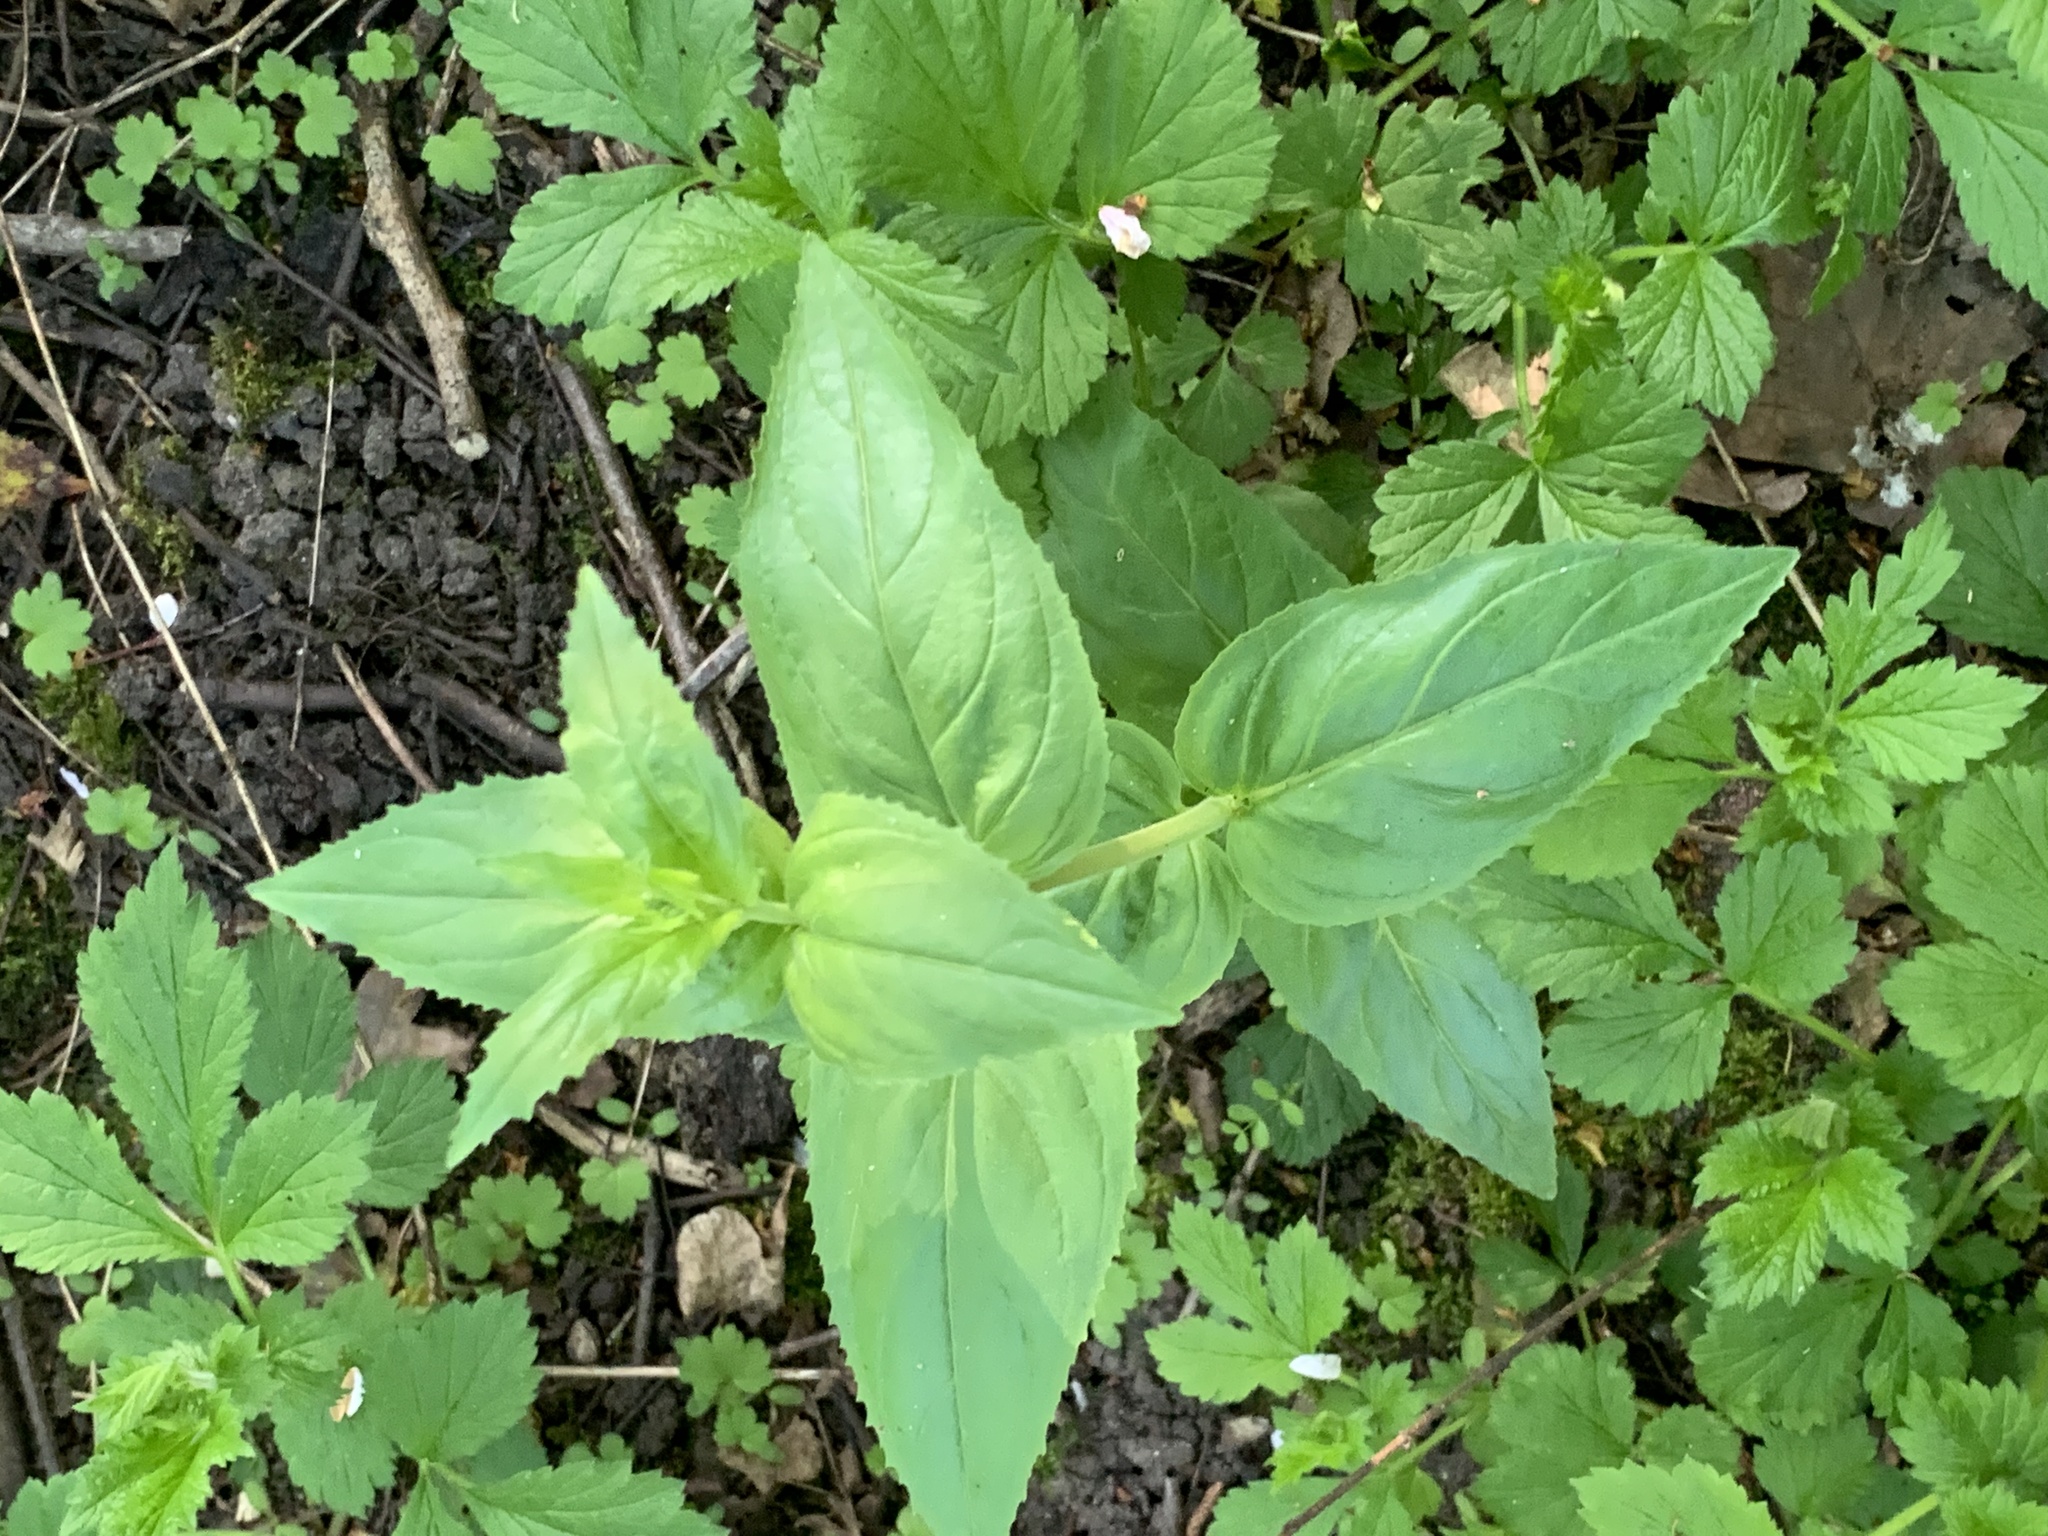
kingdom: Plantae
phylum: Tracheophyta
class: Magnoliopsida
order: Myrtales
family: Onagraceae
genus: Epilobium
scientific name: Epilobium montanum
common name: Broad-leaved willowherb
